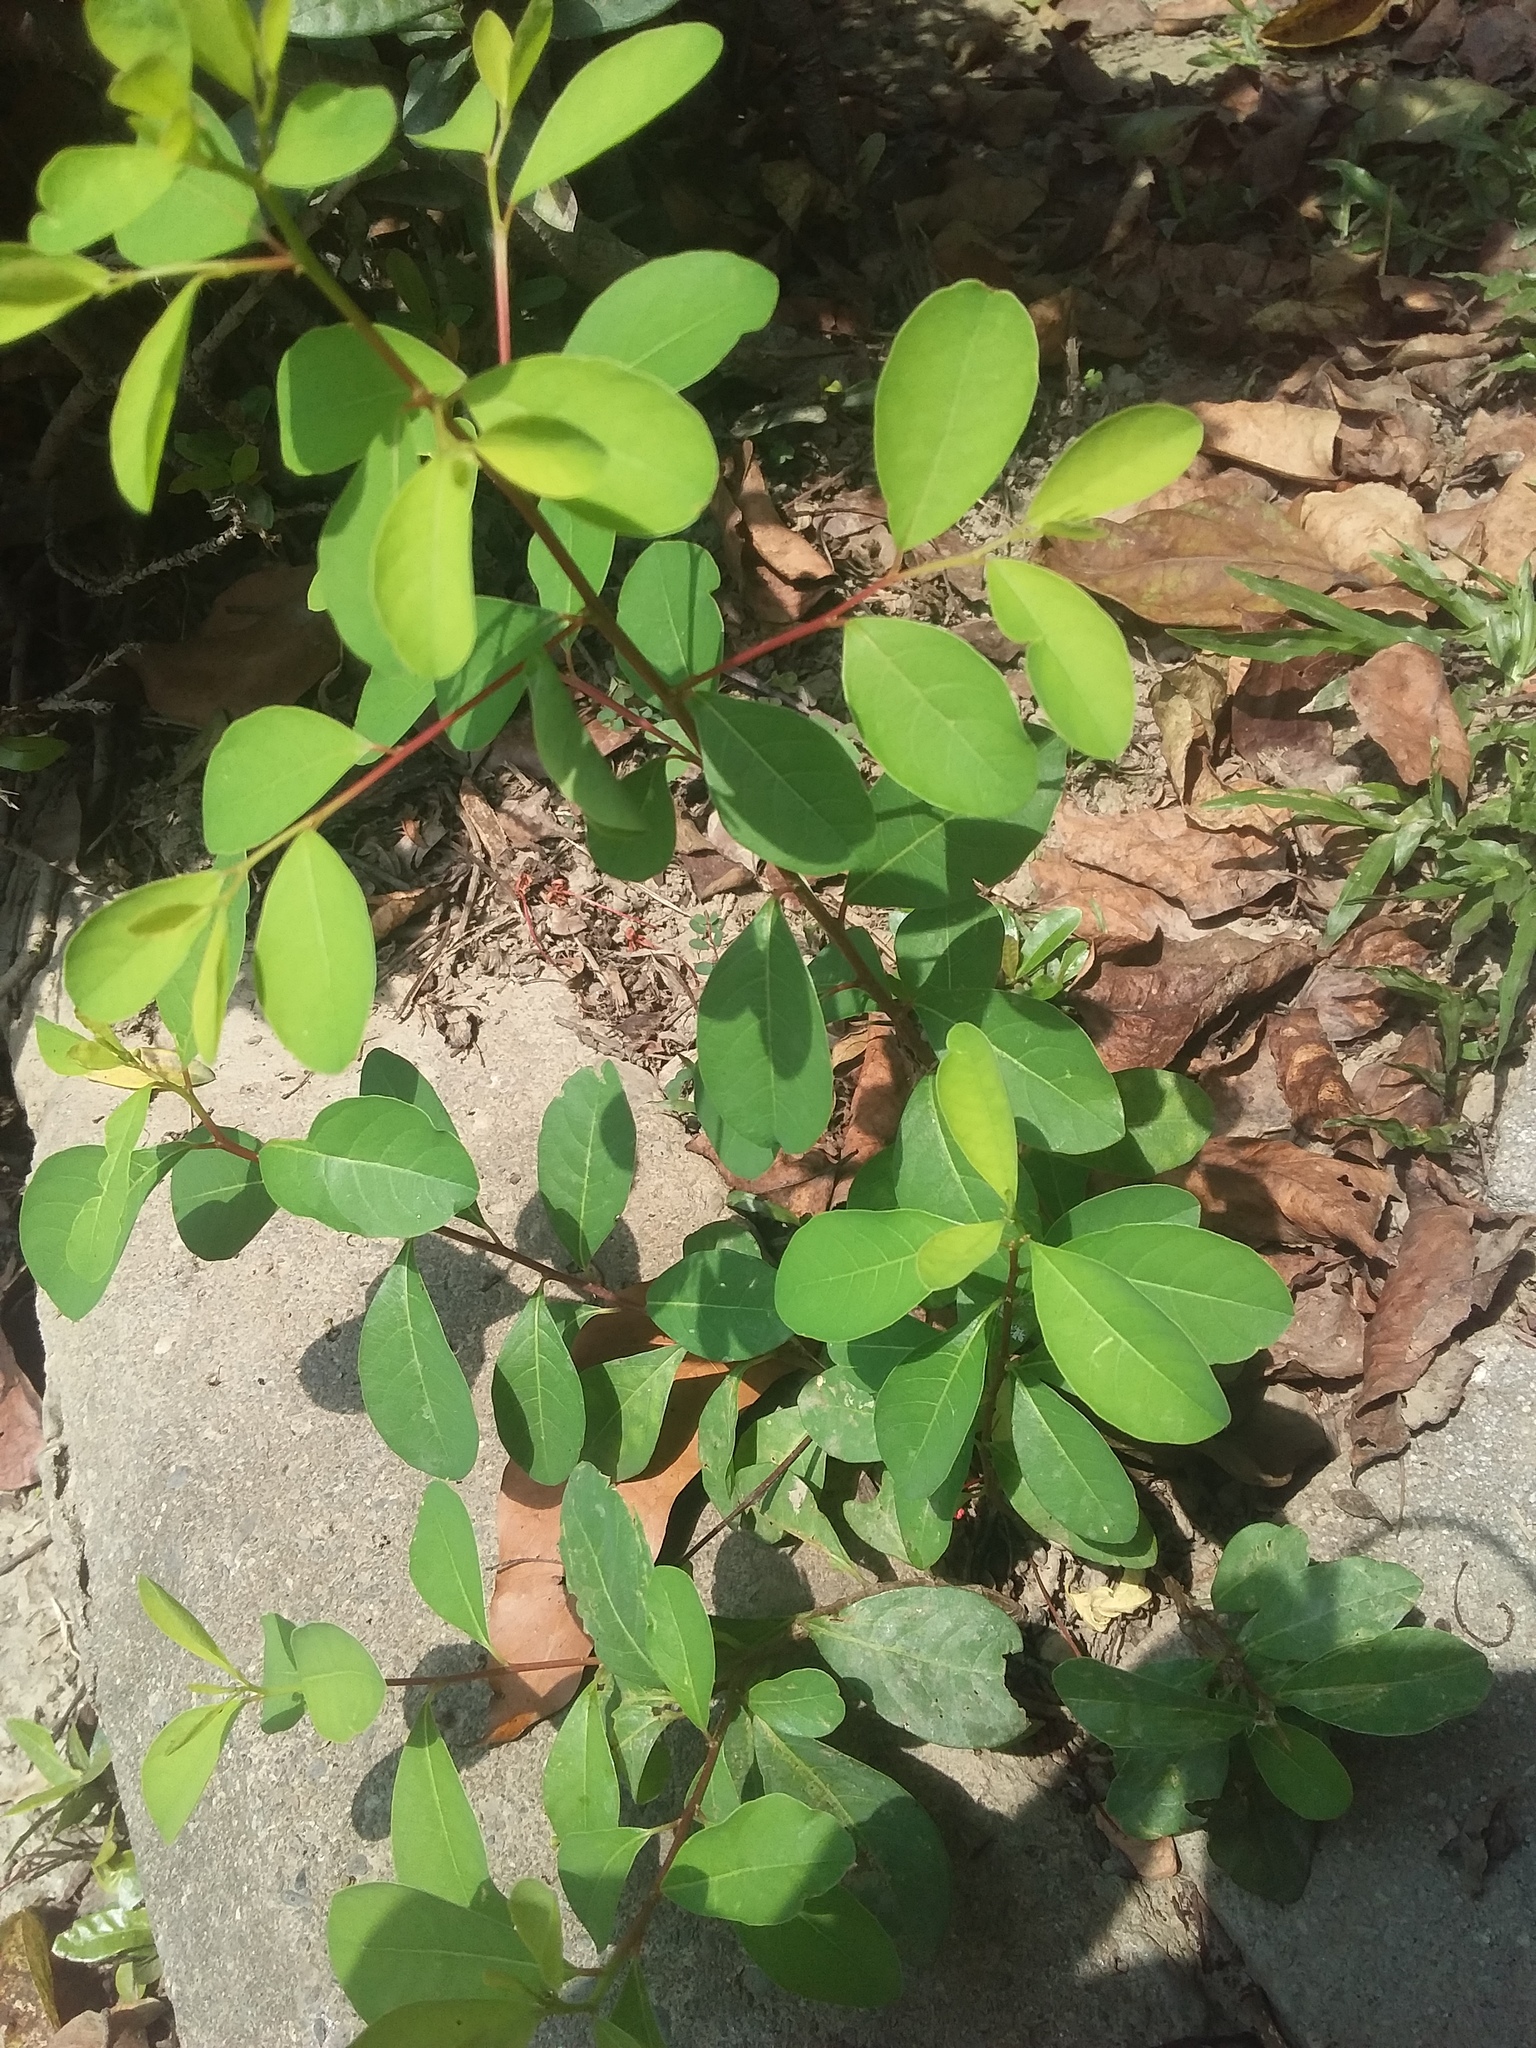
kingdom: Plantae
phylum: Tracheophyta
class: Magnoliopsida
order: Malpighiales
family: Phyllanthaceae
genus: Flueggea
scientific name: Flueggea virosa
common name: Common bushweed
